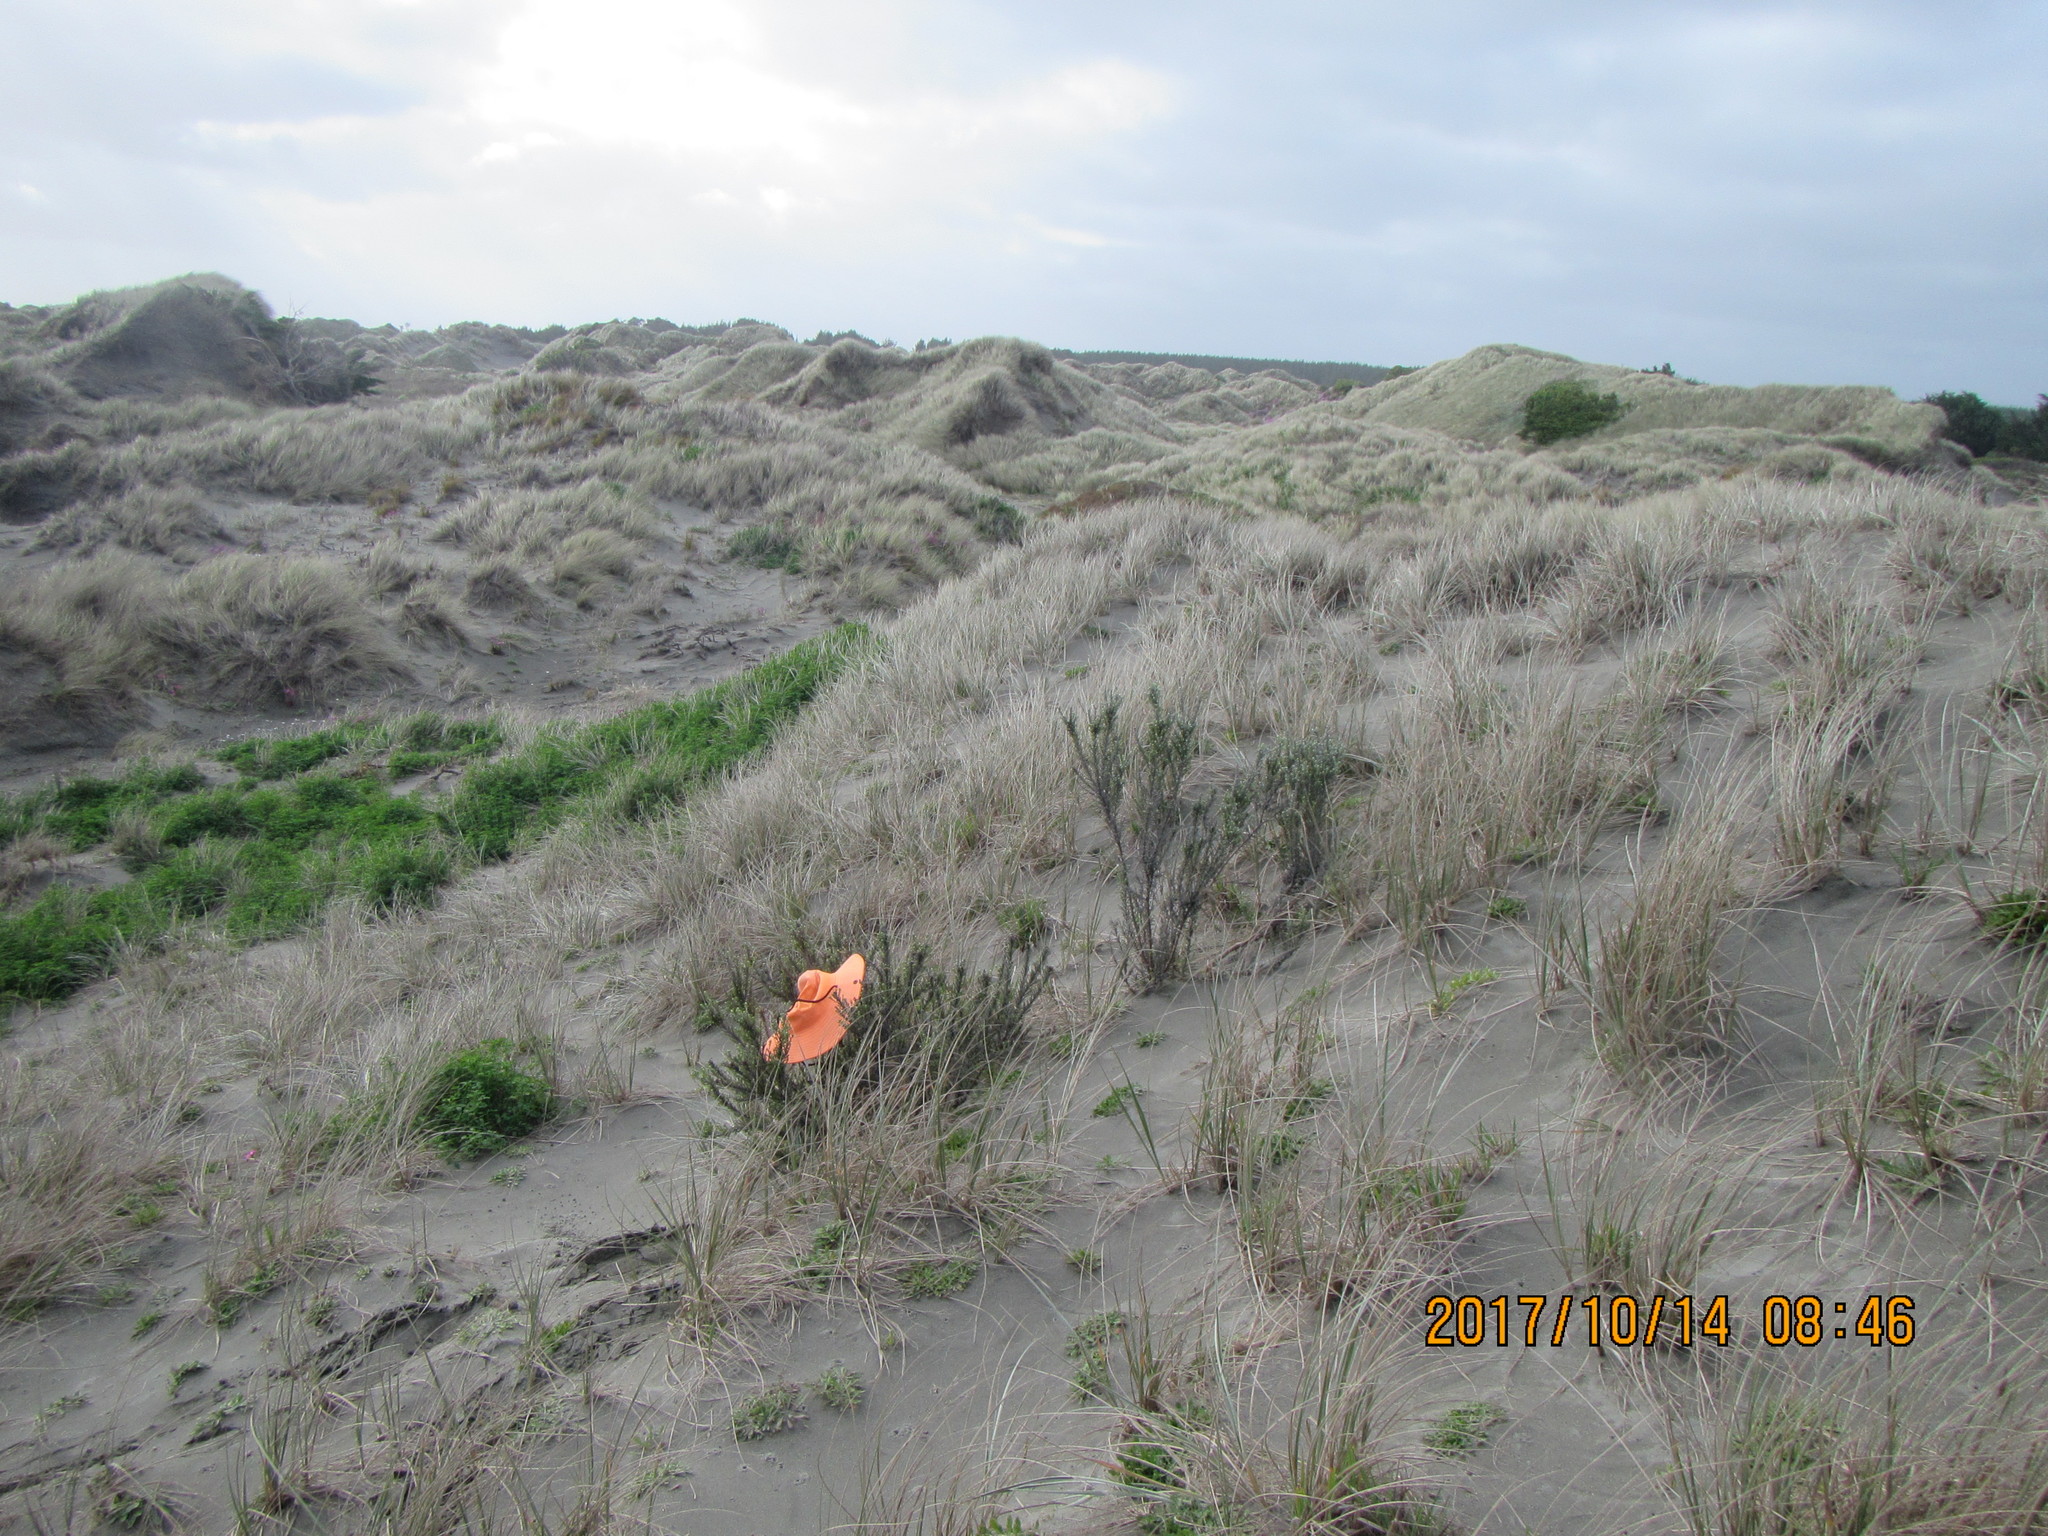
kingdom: Plantae
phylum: Tracheophyta
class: Magnoliopsida
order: Asterales
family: Asteraceae
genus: Ozothamnus
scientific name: Ozothamnus leptophyllus
